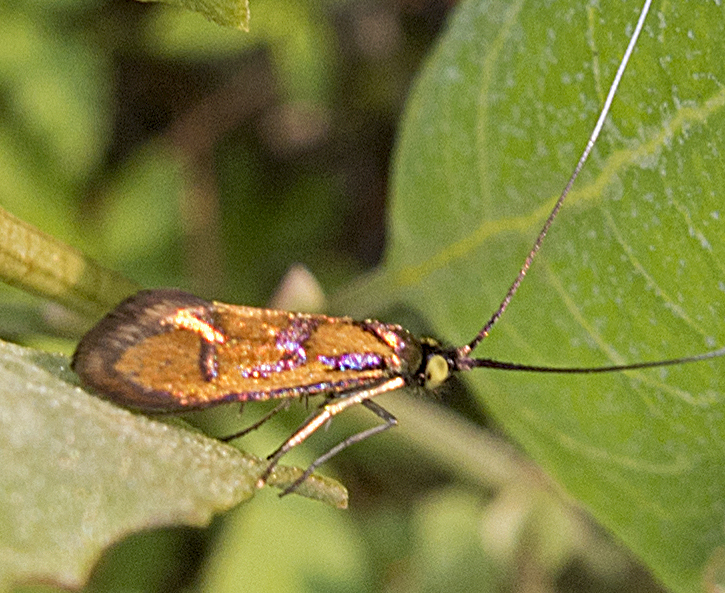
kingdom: Animalia
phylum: Arthropoda
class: Insecta
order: Lepidoptera
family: Adelidae
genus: Nemophora
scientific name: Nemophora chrysochraon
